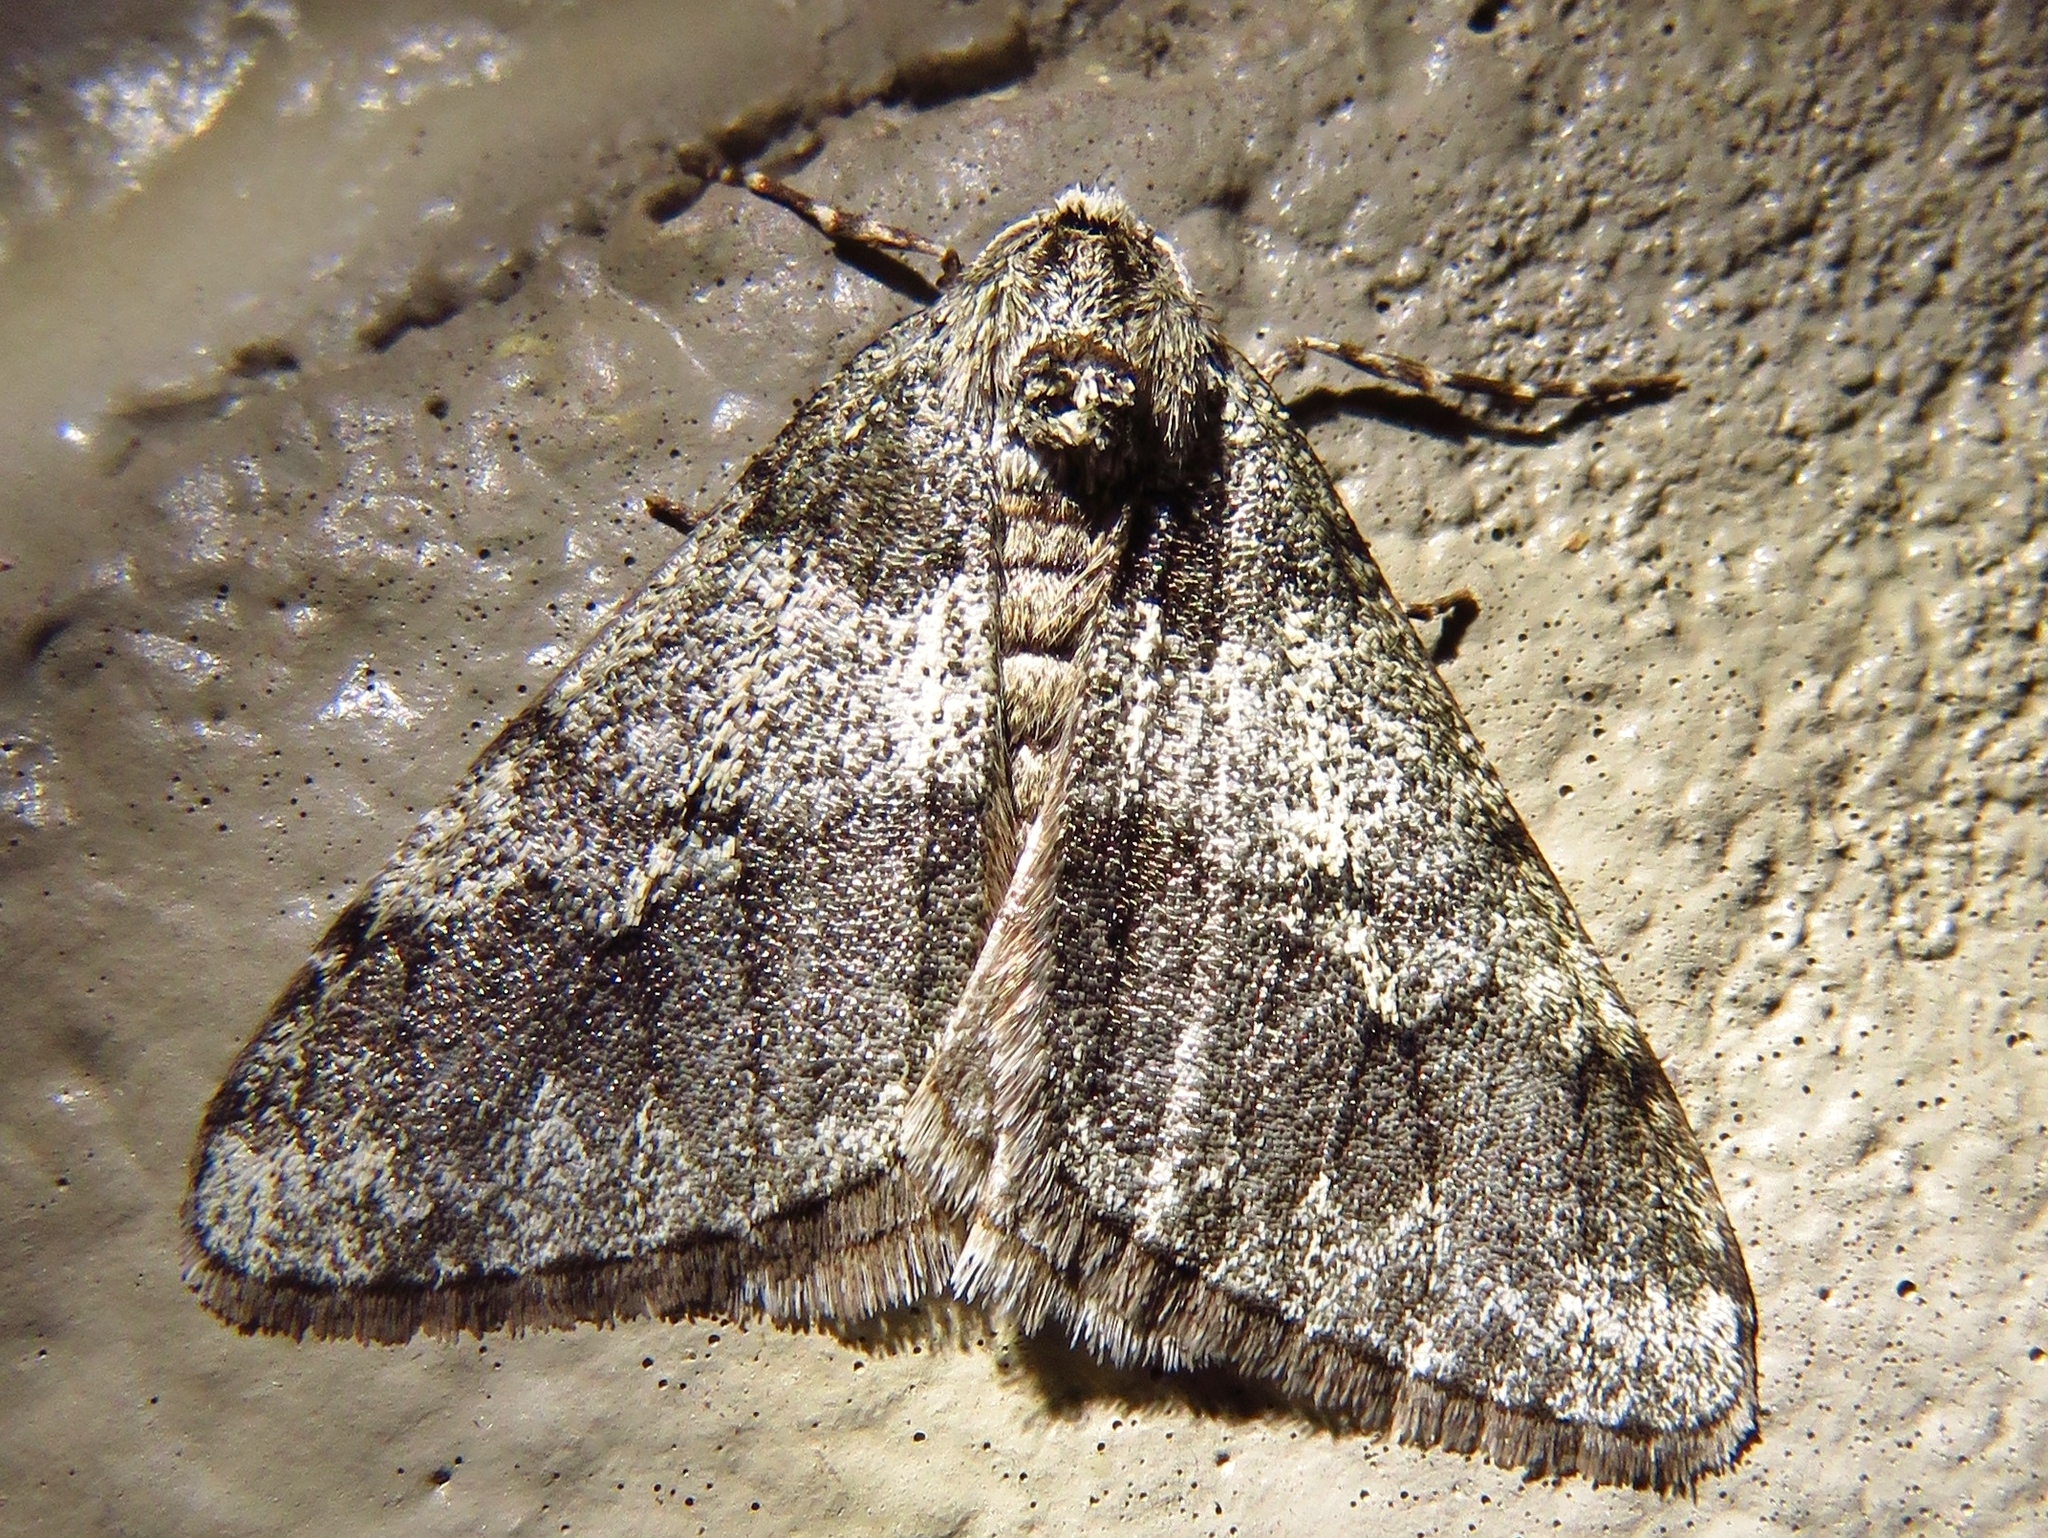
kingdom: Animalia
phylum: Arthropoda
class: Insecta
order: Lepidoptera
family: Geometridae
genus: Phigalia
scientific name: Phigalia strigataria
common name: Small phigalia
